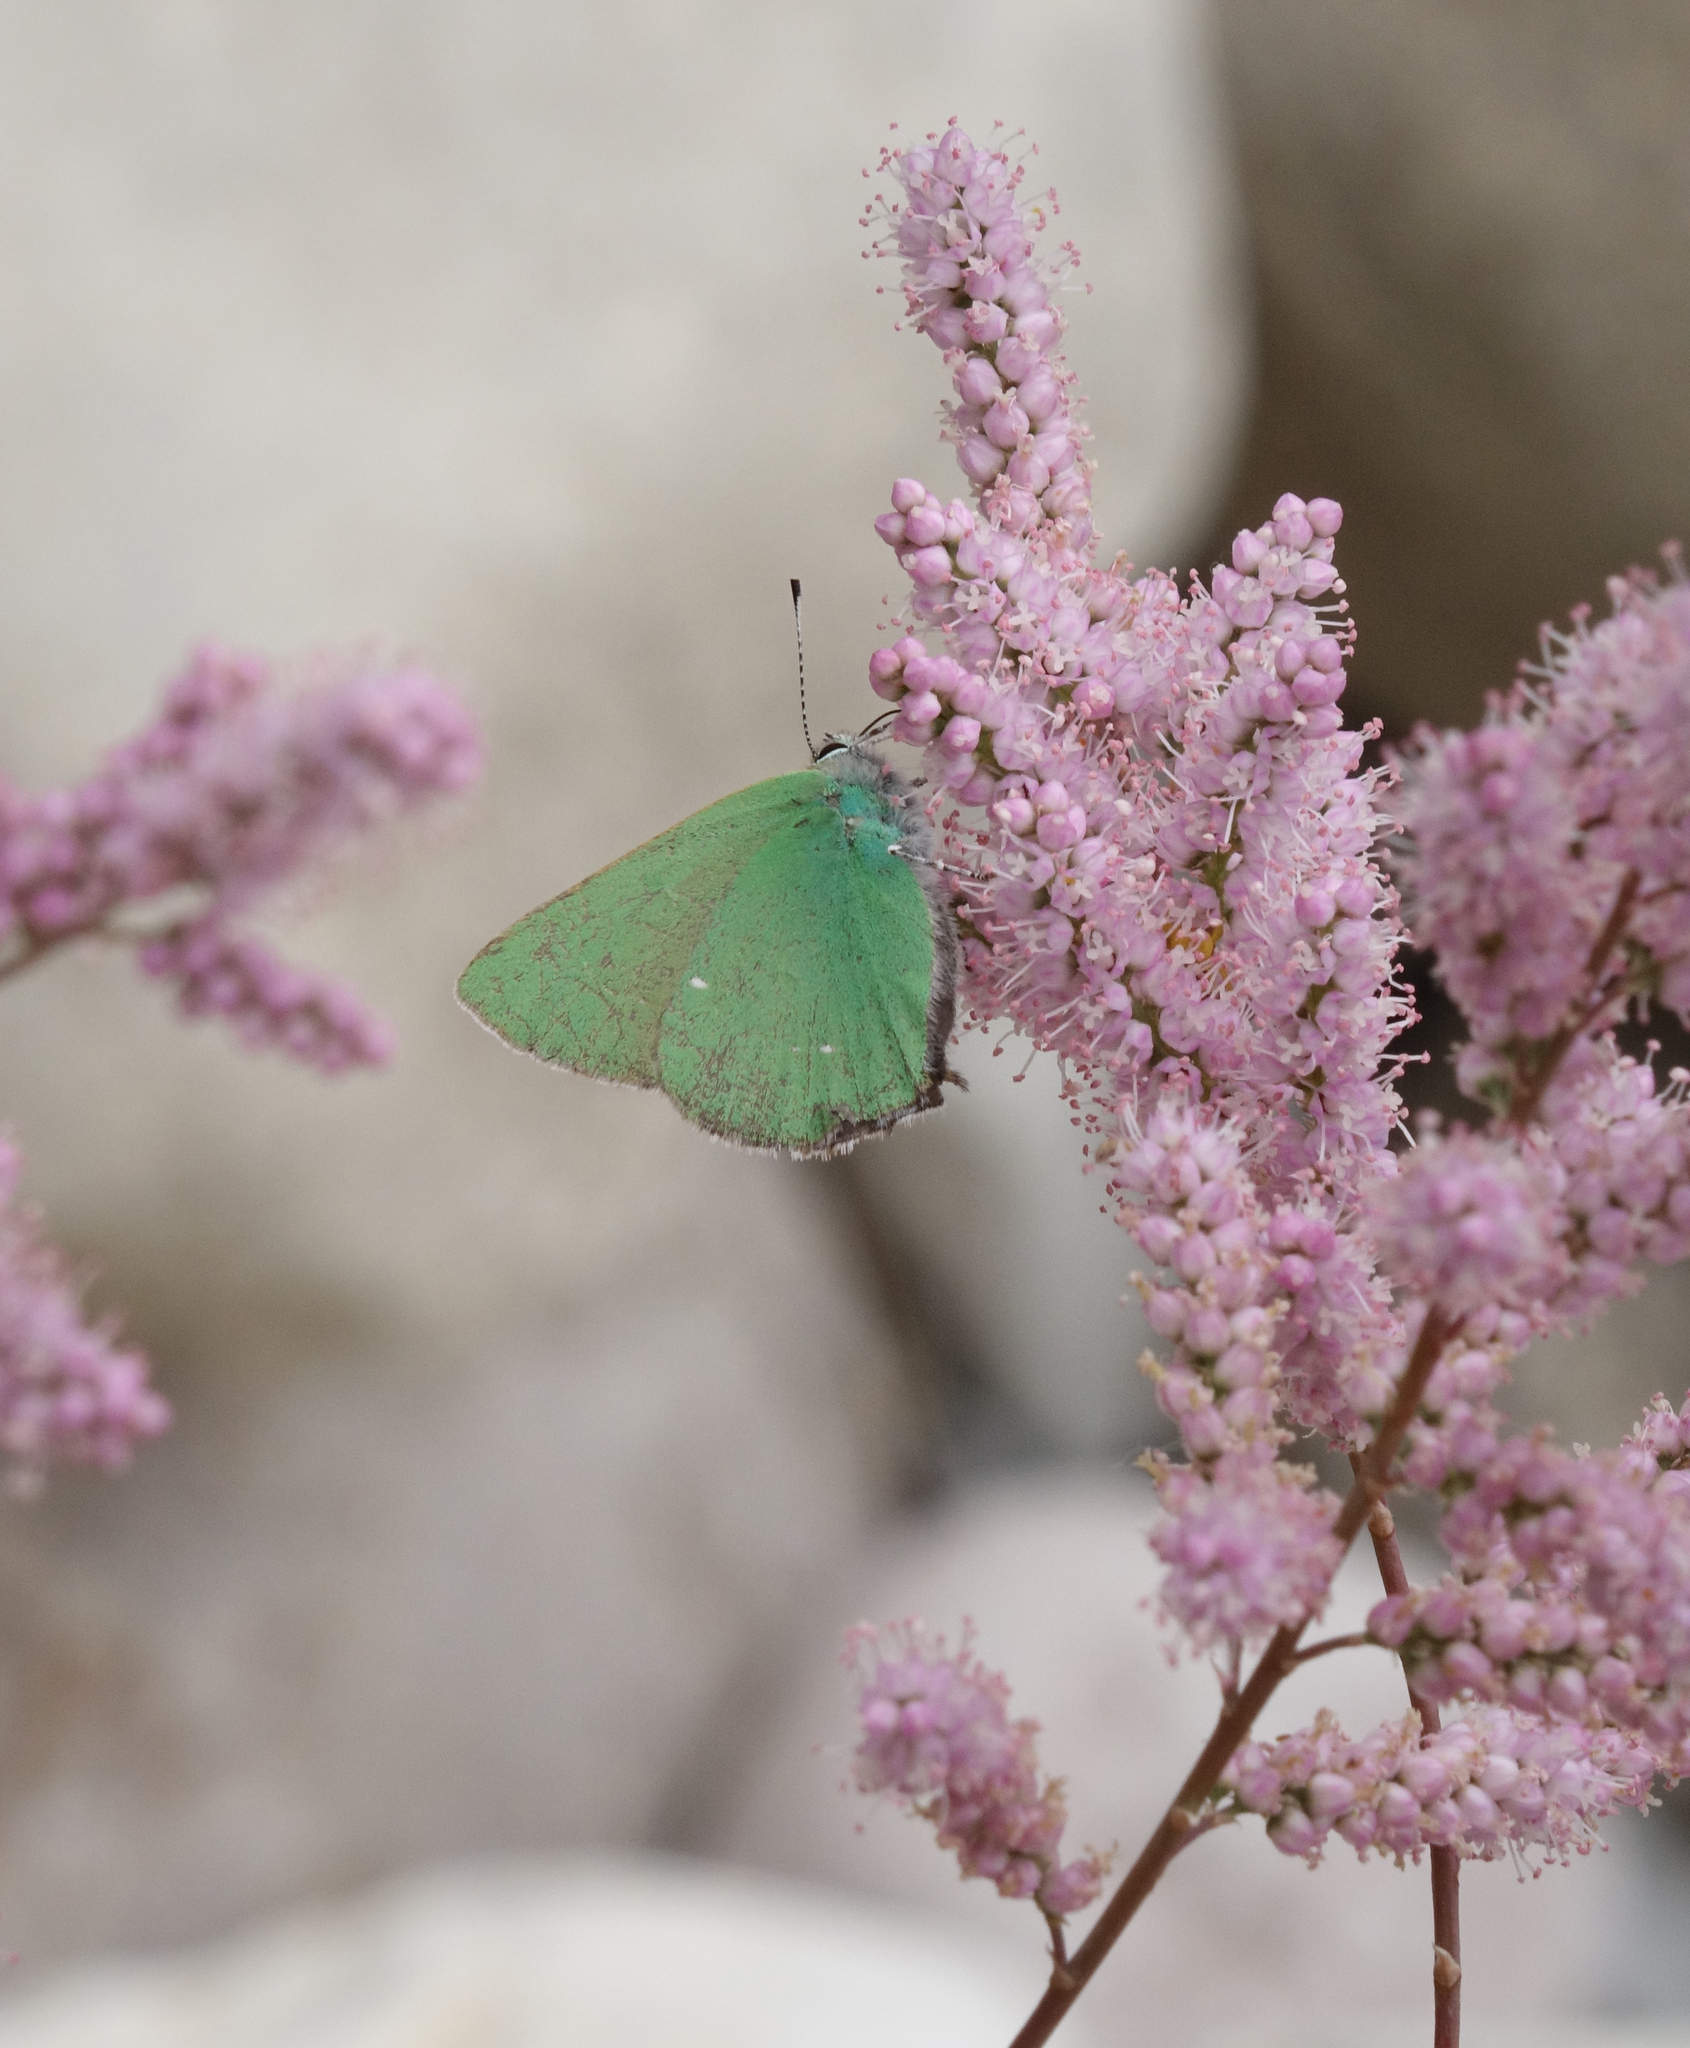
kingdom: Animalia
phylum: Arthropoda
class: Insecta
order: Lepidoptera
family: Lycaenidae
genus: Callophrys
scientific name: Callophrys rubi
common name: Green hairstreak
